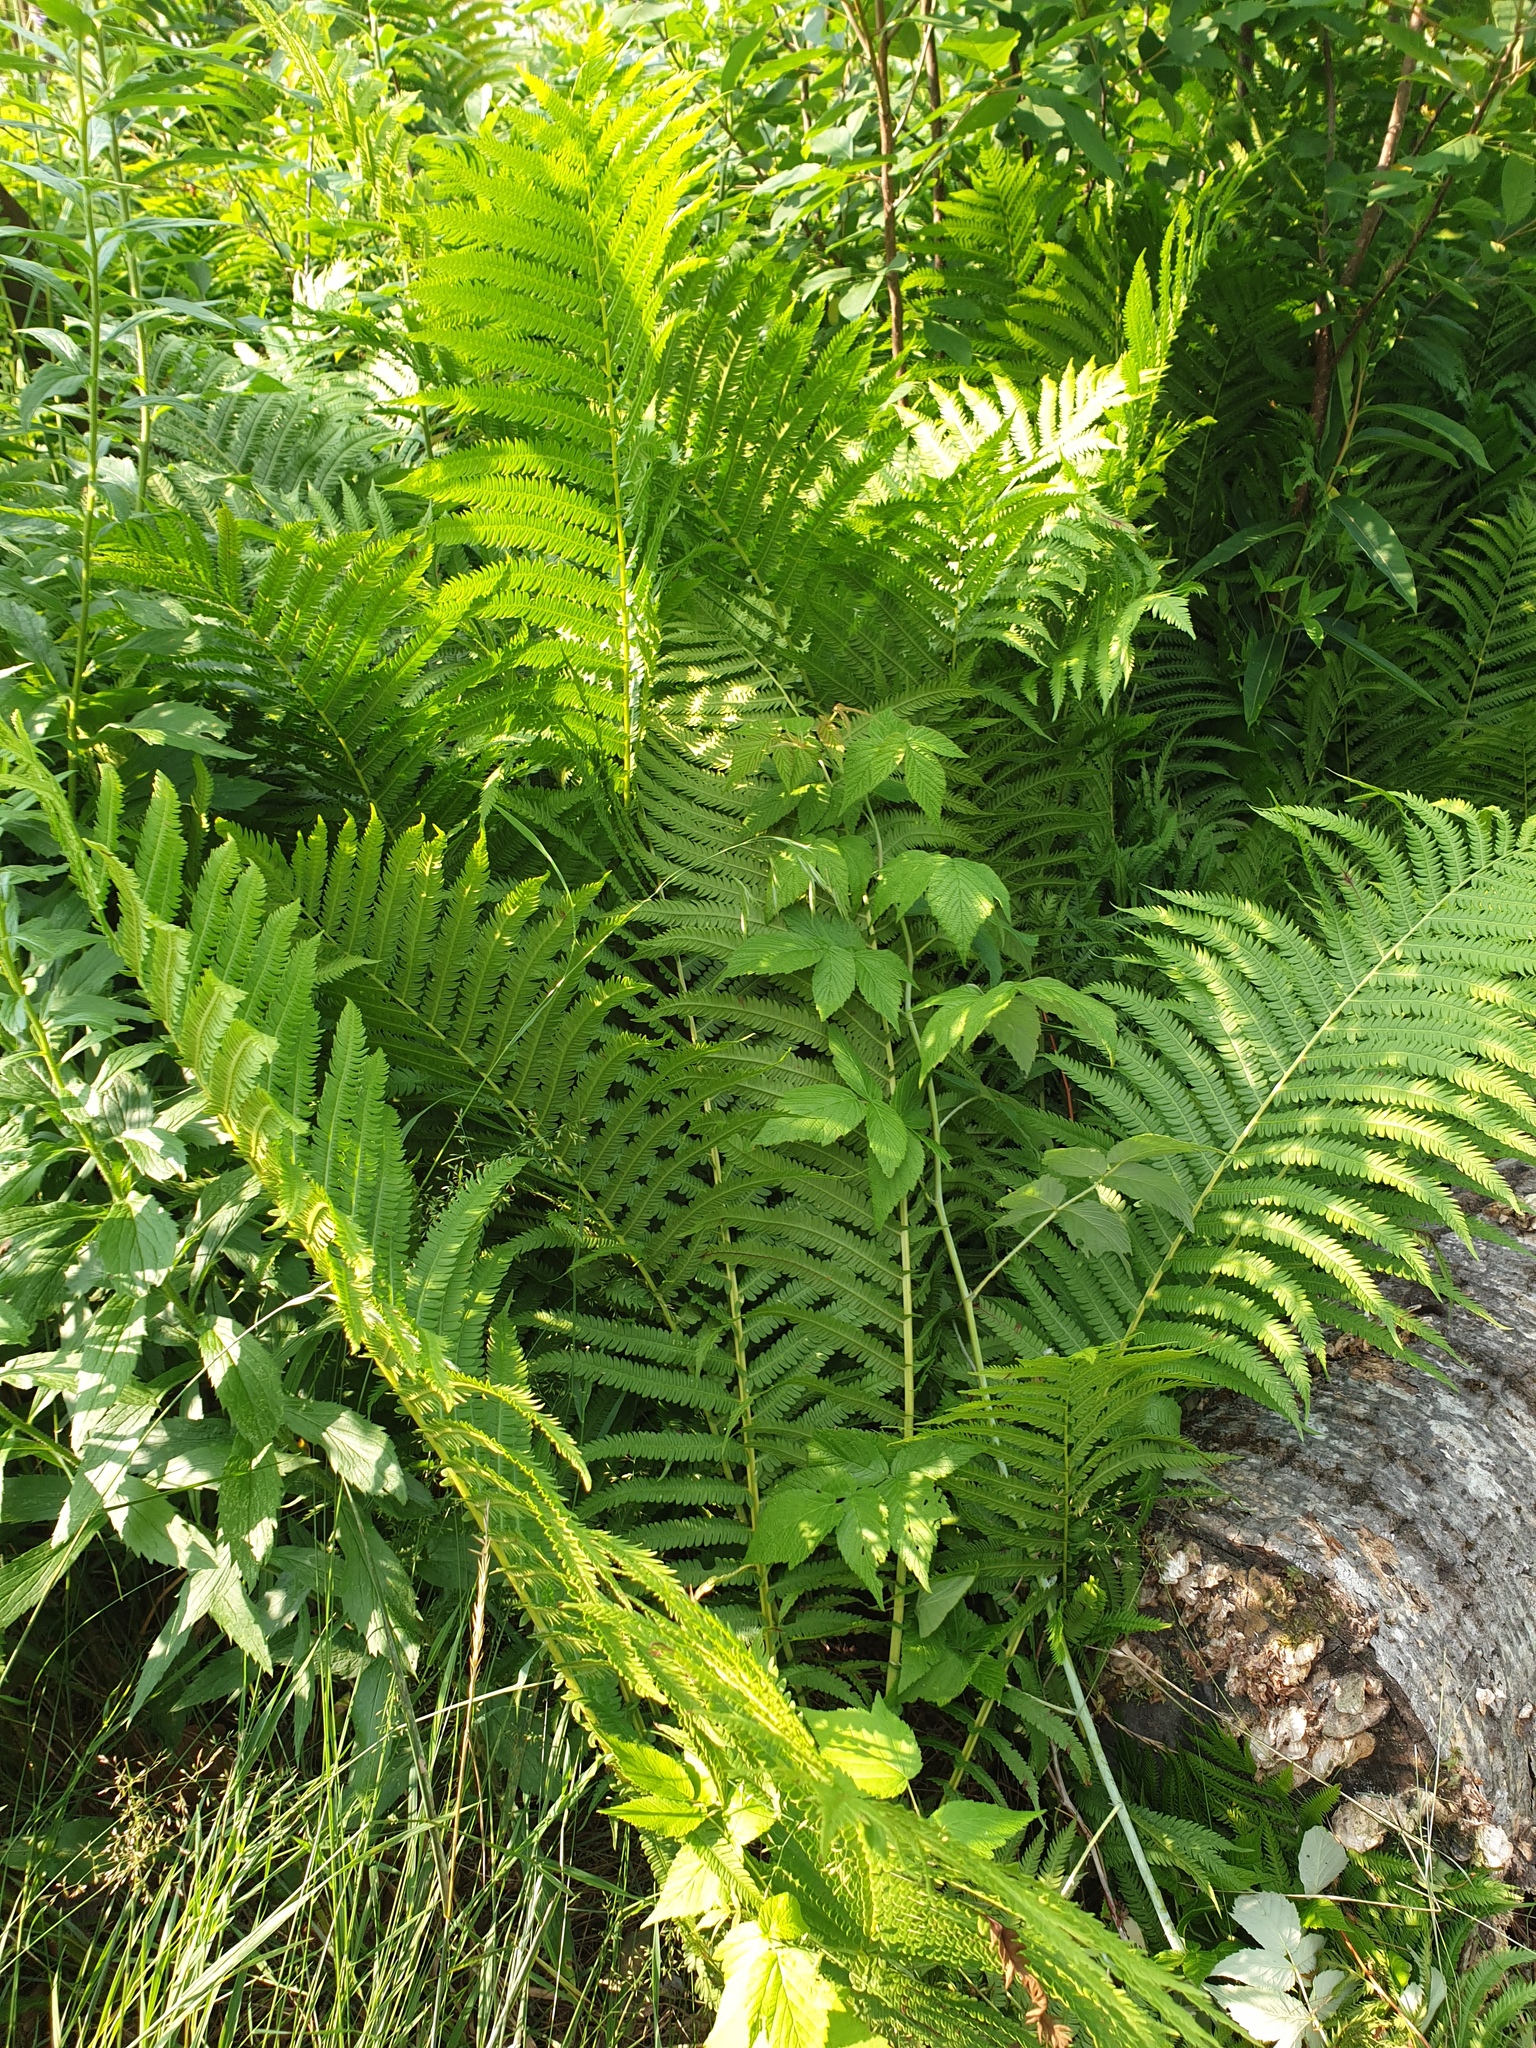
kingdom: Plantae
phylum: Tracheophyta
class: Polypodiopsida
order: Polypodiales
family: Onocleaceae
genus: Matteuccia
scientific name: Matteuccia struthiopteris
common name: Ostrich fern
